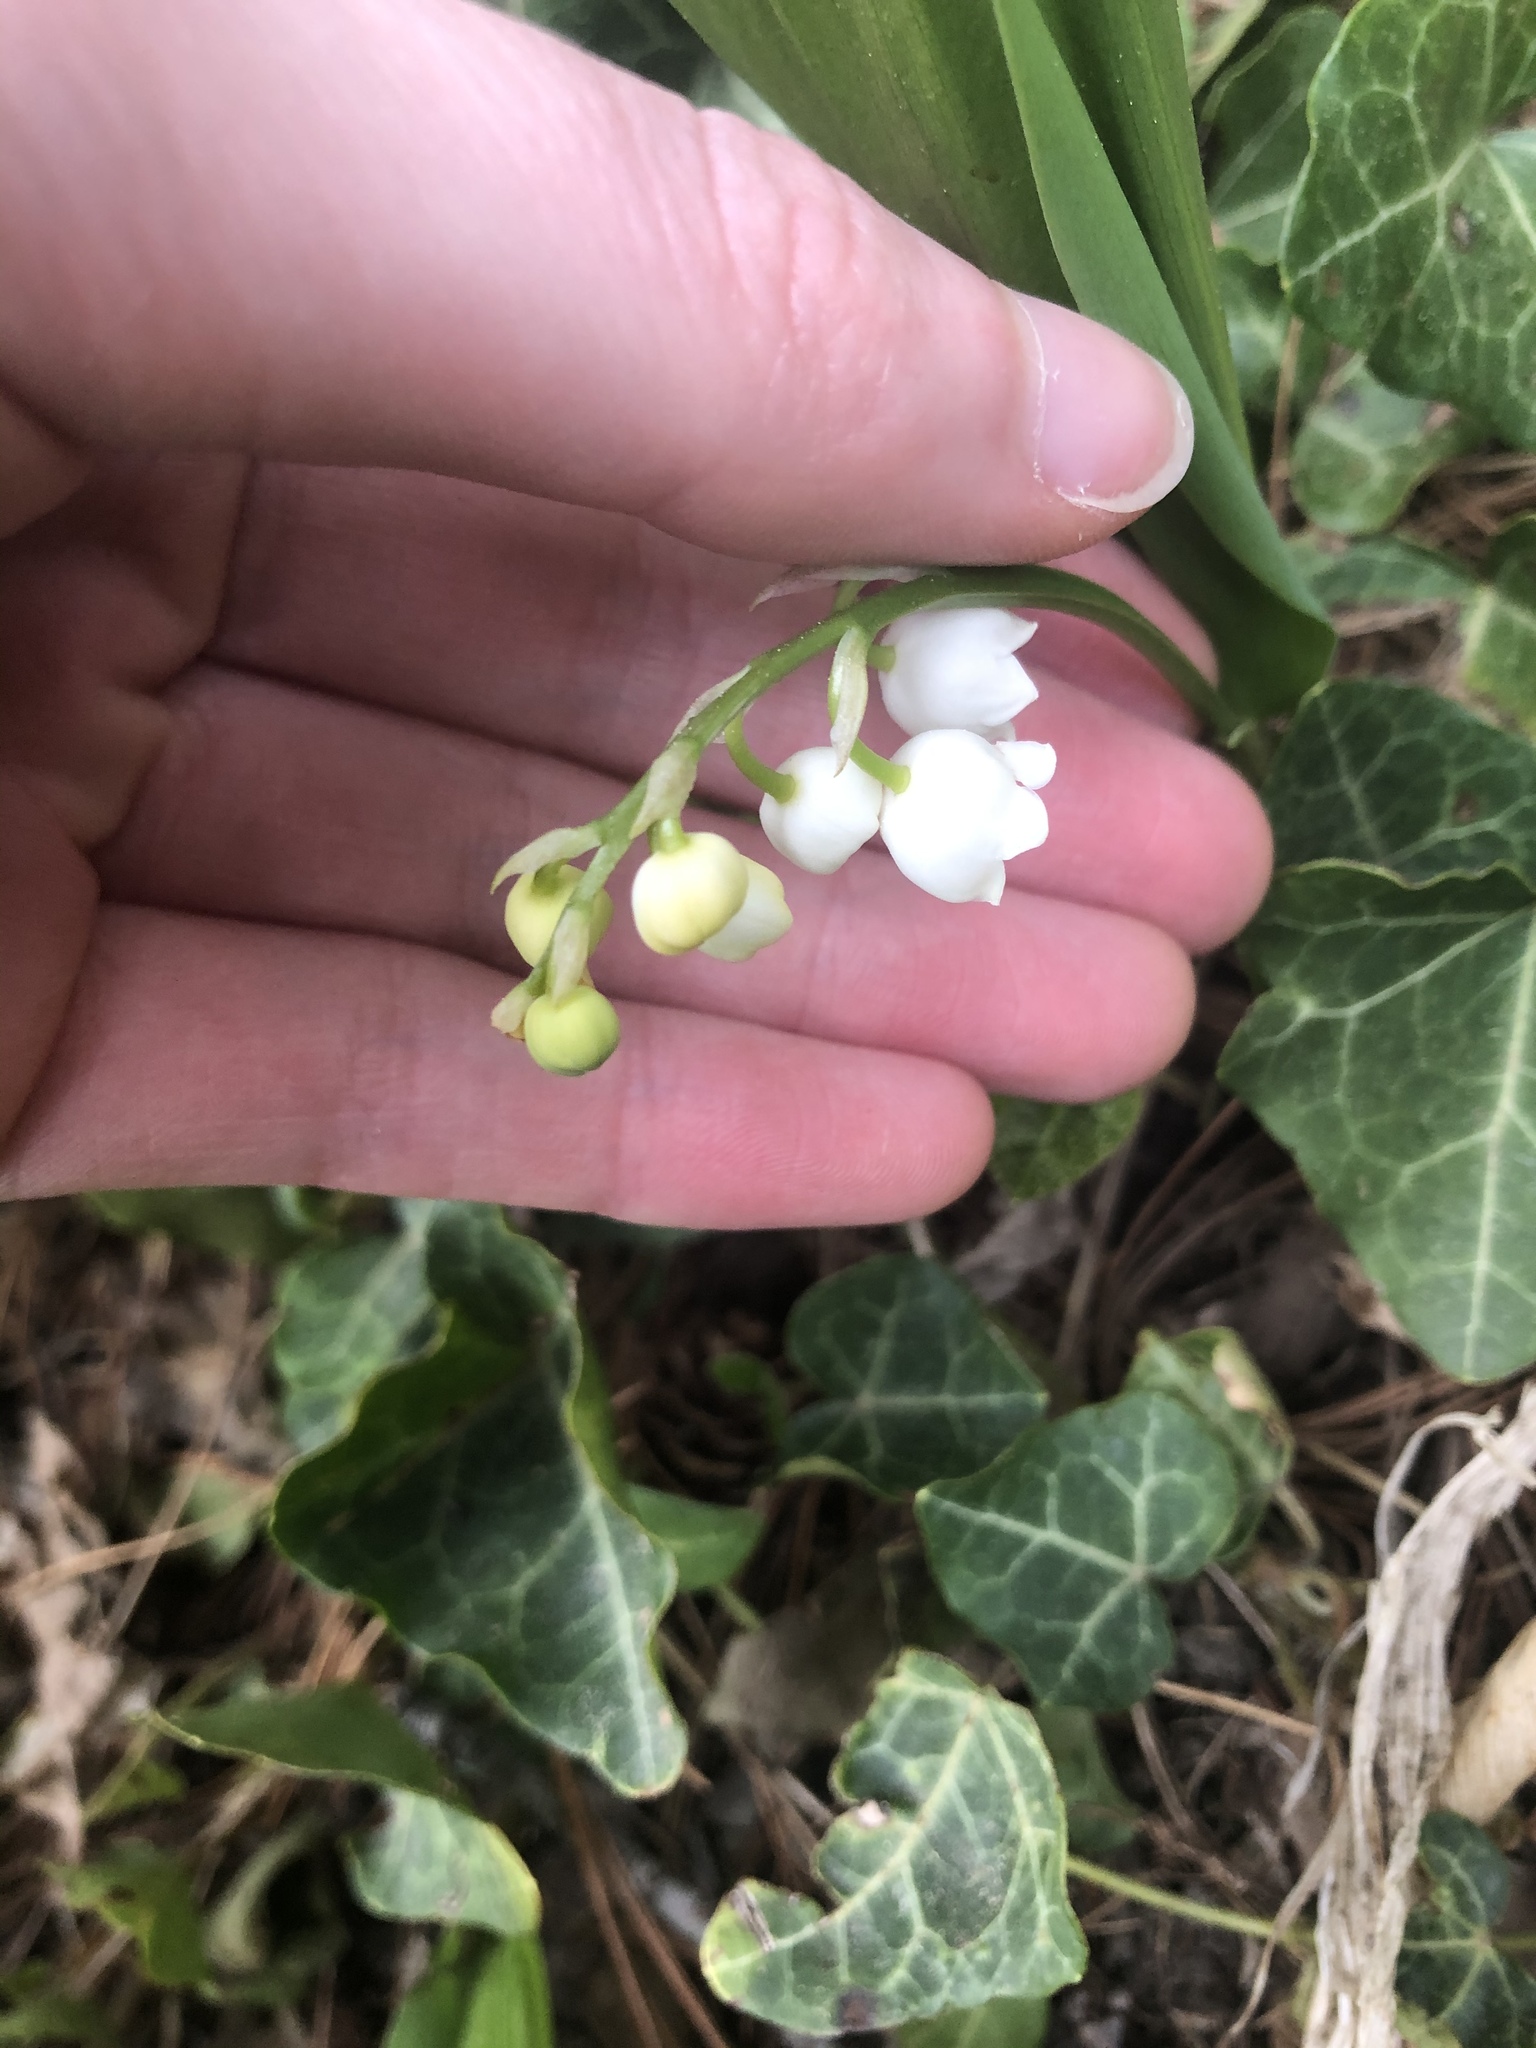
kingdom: Plantae
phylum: Tracheophyta
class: Liliopsida
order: Asparagales
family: Asparagaceae
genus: Convallaria
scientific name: Convallaria majalis
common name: Lily-of-the-valley
